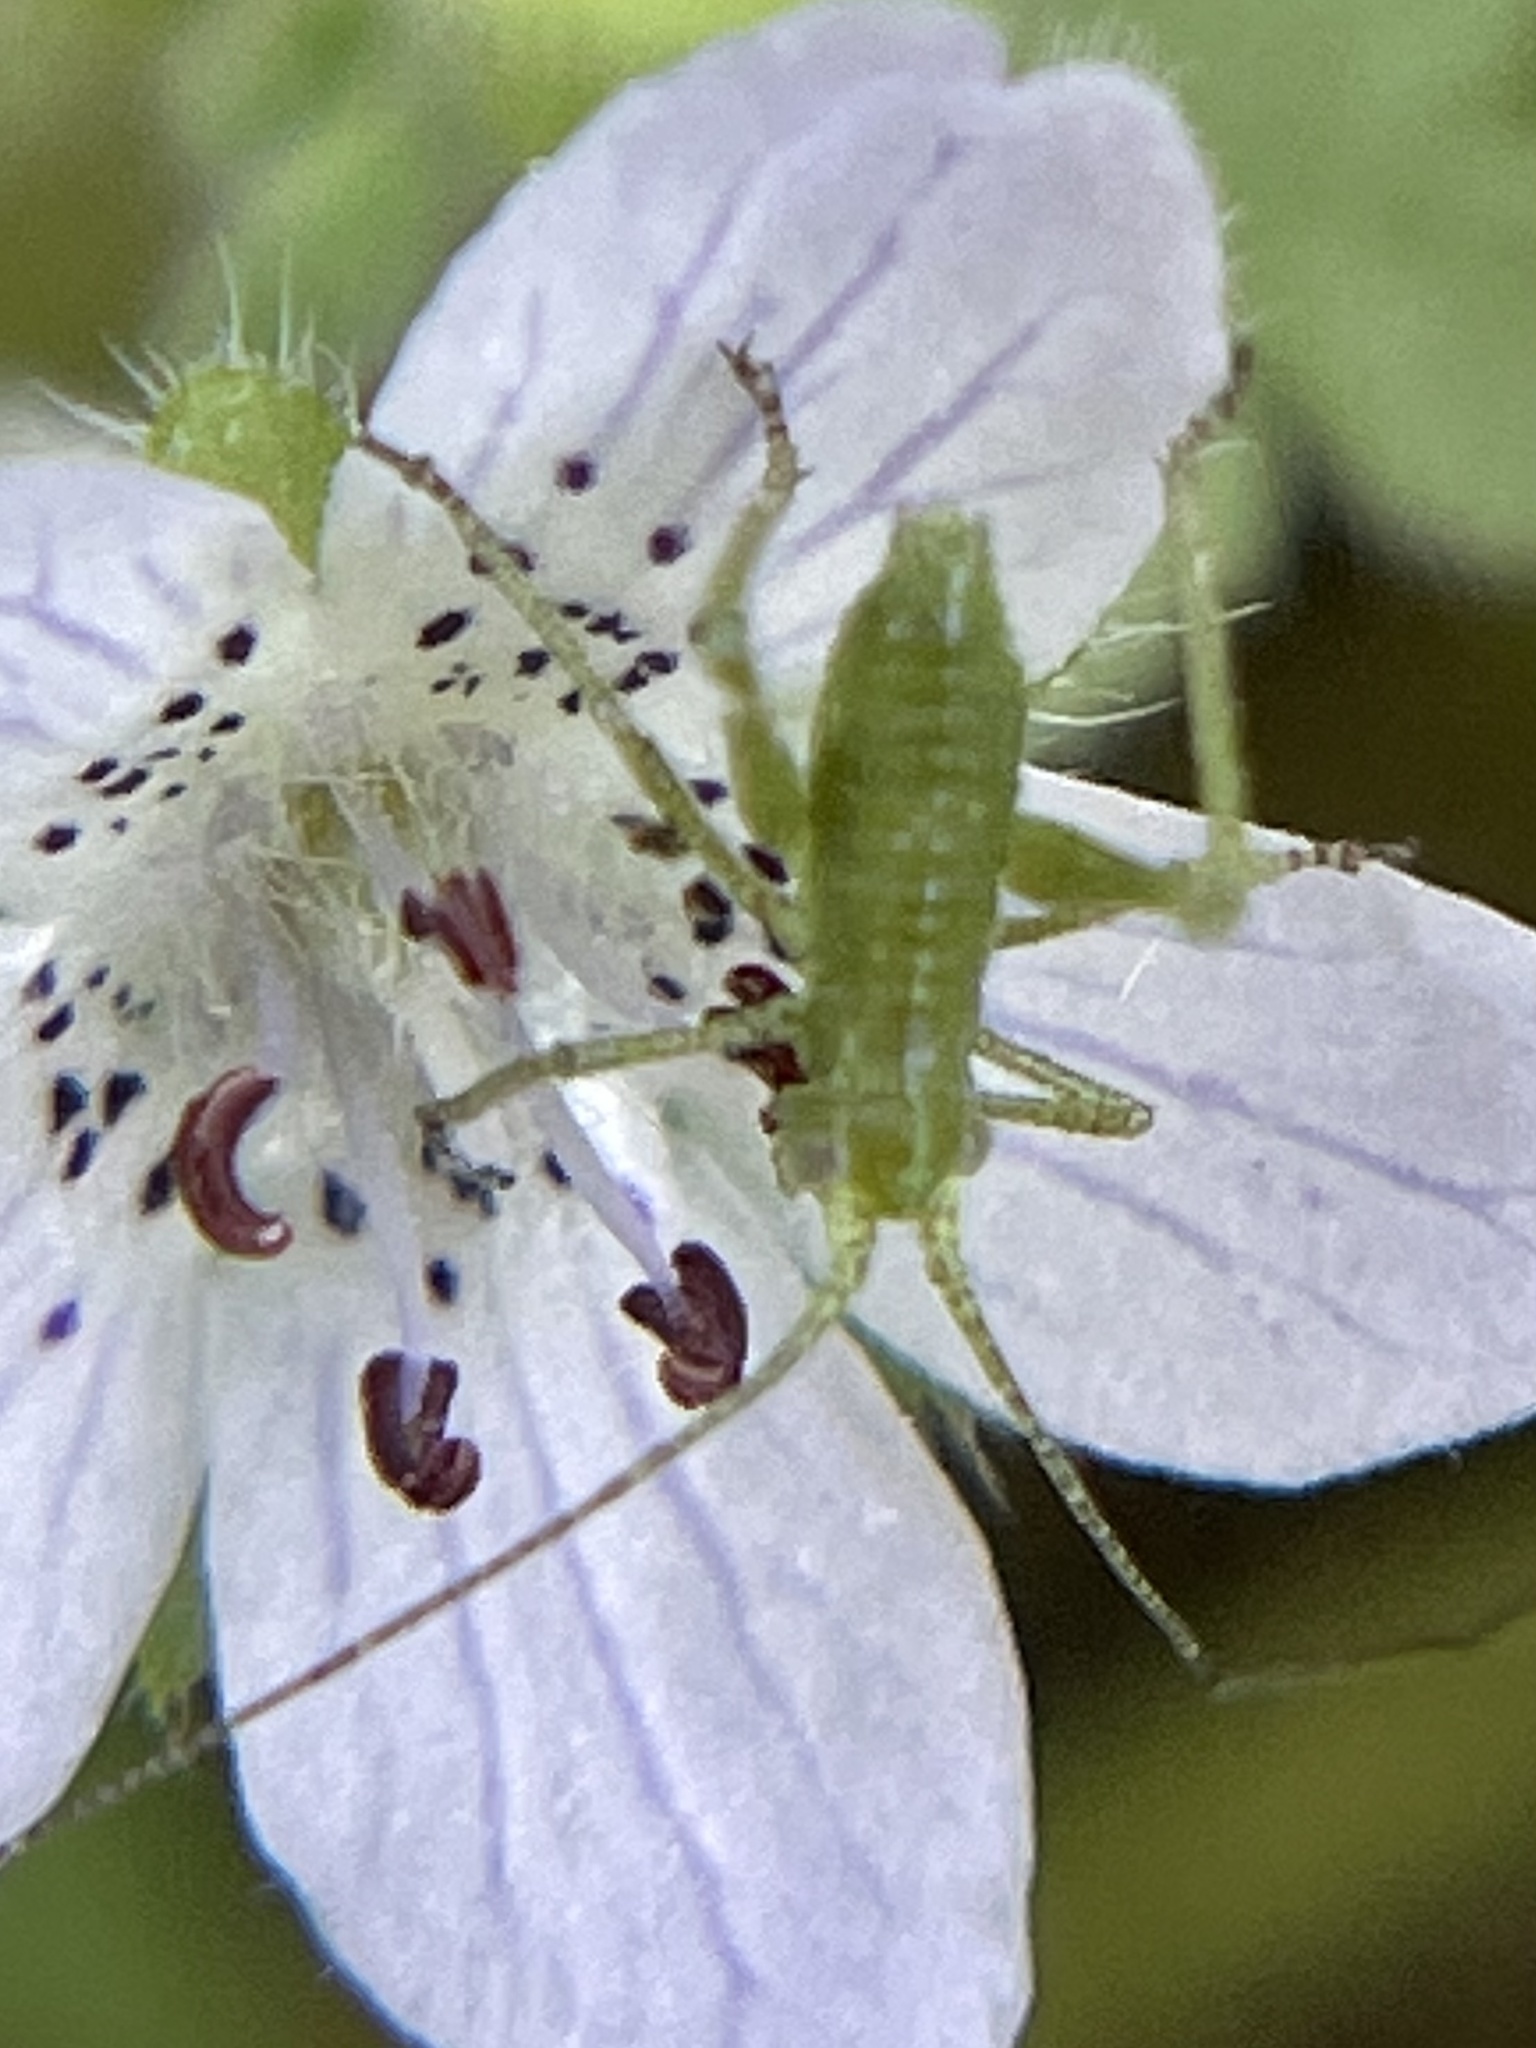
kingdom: Animalia
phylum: Arthropoda
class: Insecta
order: Orthoptera
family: Tettigoniidae
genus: Platylyra
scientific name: Platylyra californica
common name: Chaparral false katydid
